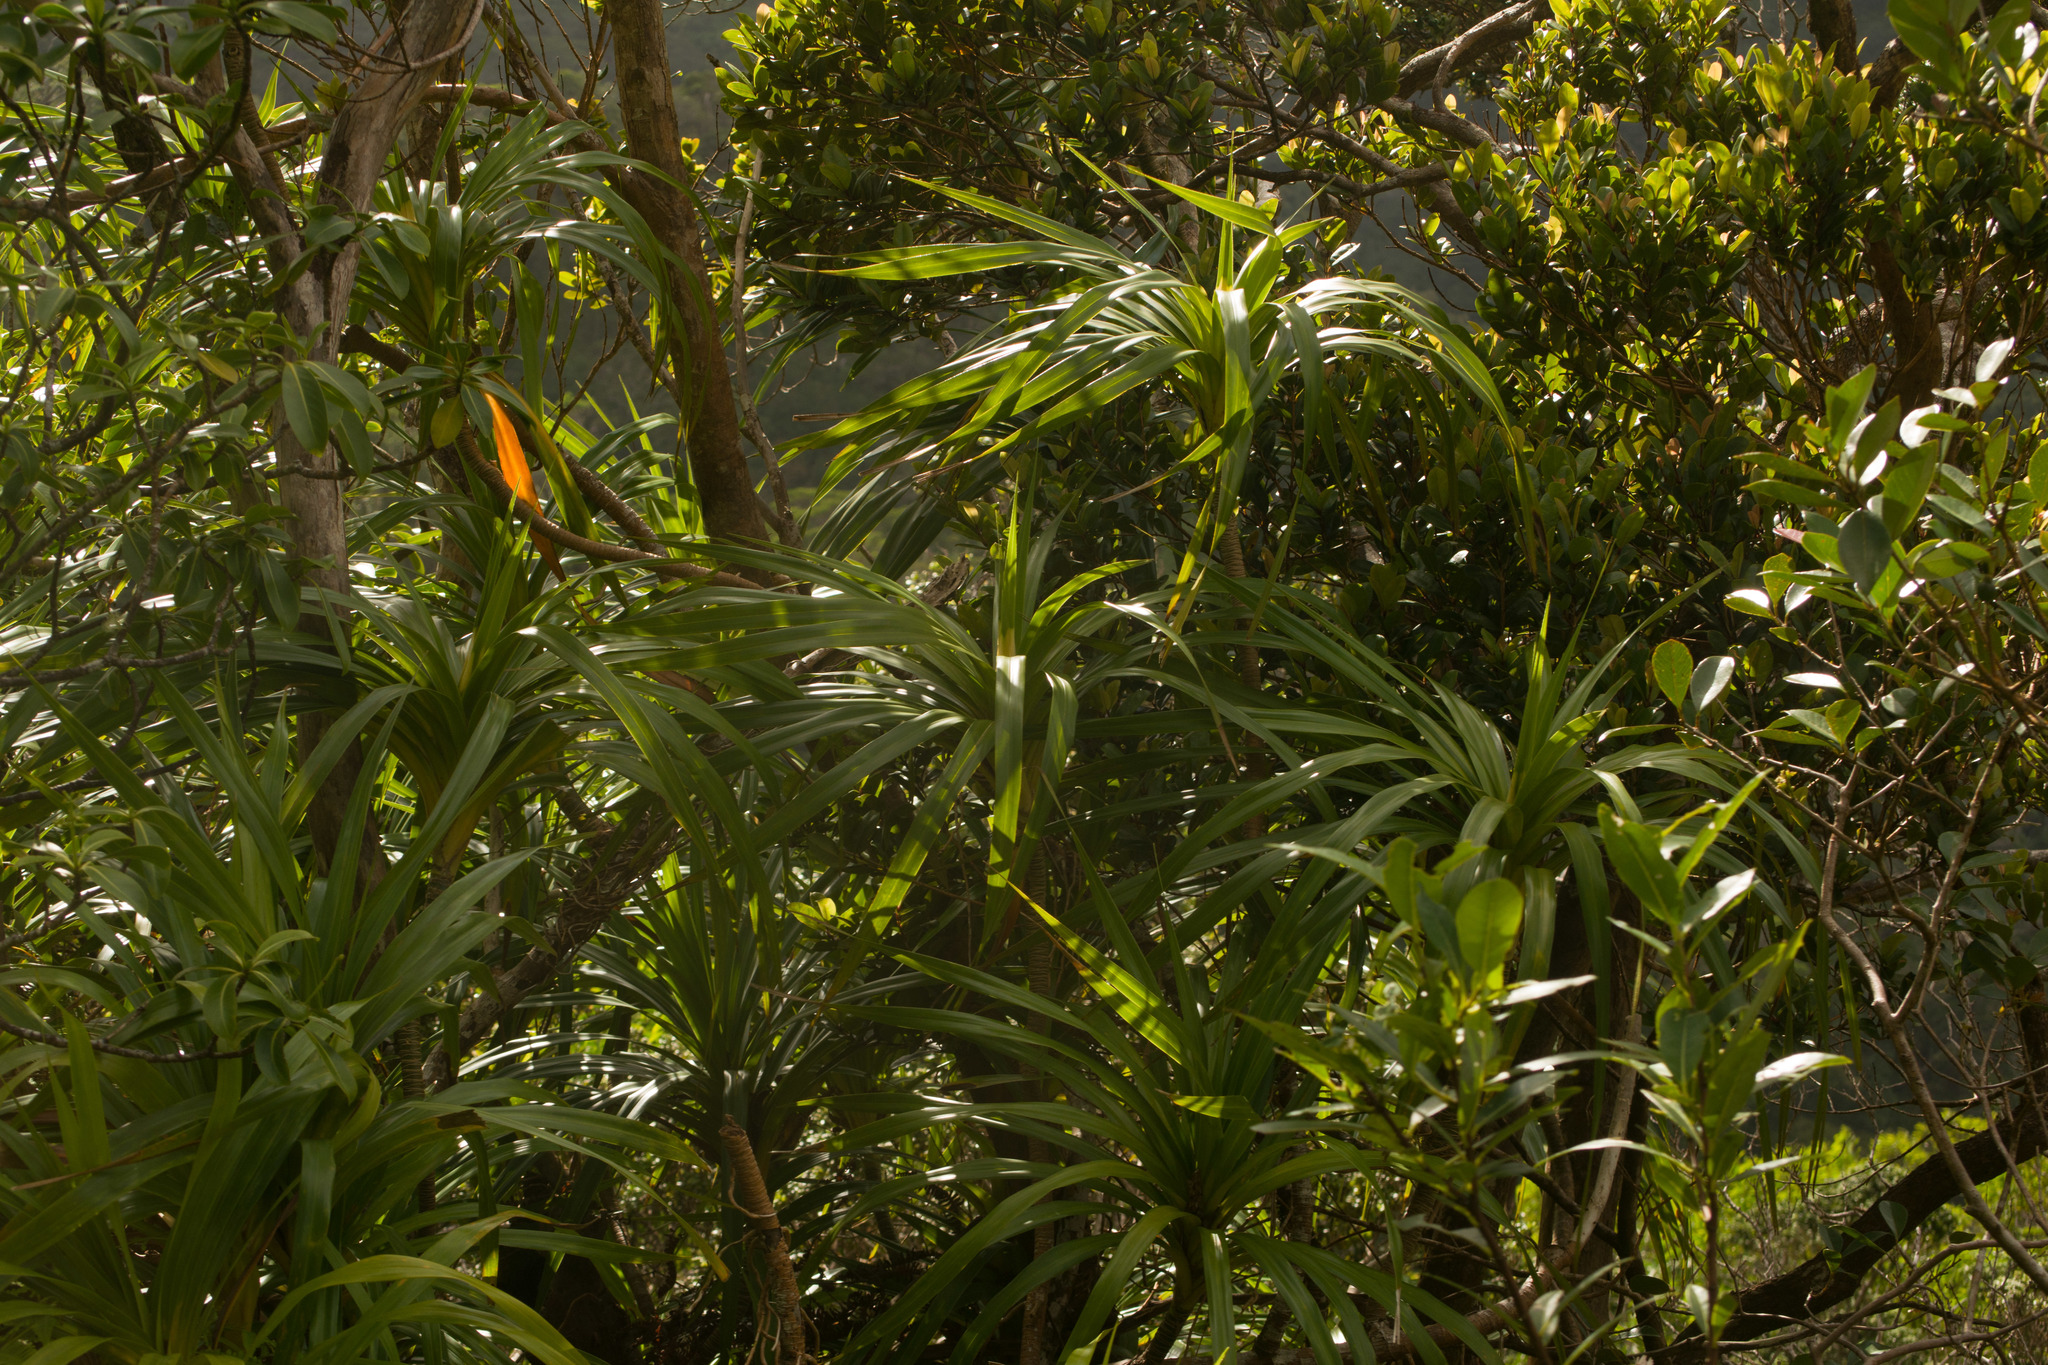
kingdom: Plantae
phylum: Tracheophyta
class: Liliopsida
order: Pandanales
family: Pandanaceae
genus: Freycinetia
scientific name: Freycinetia arborea
